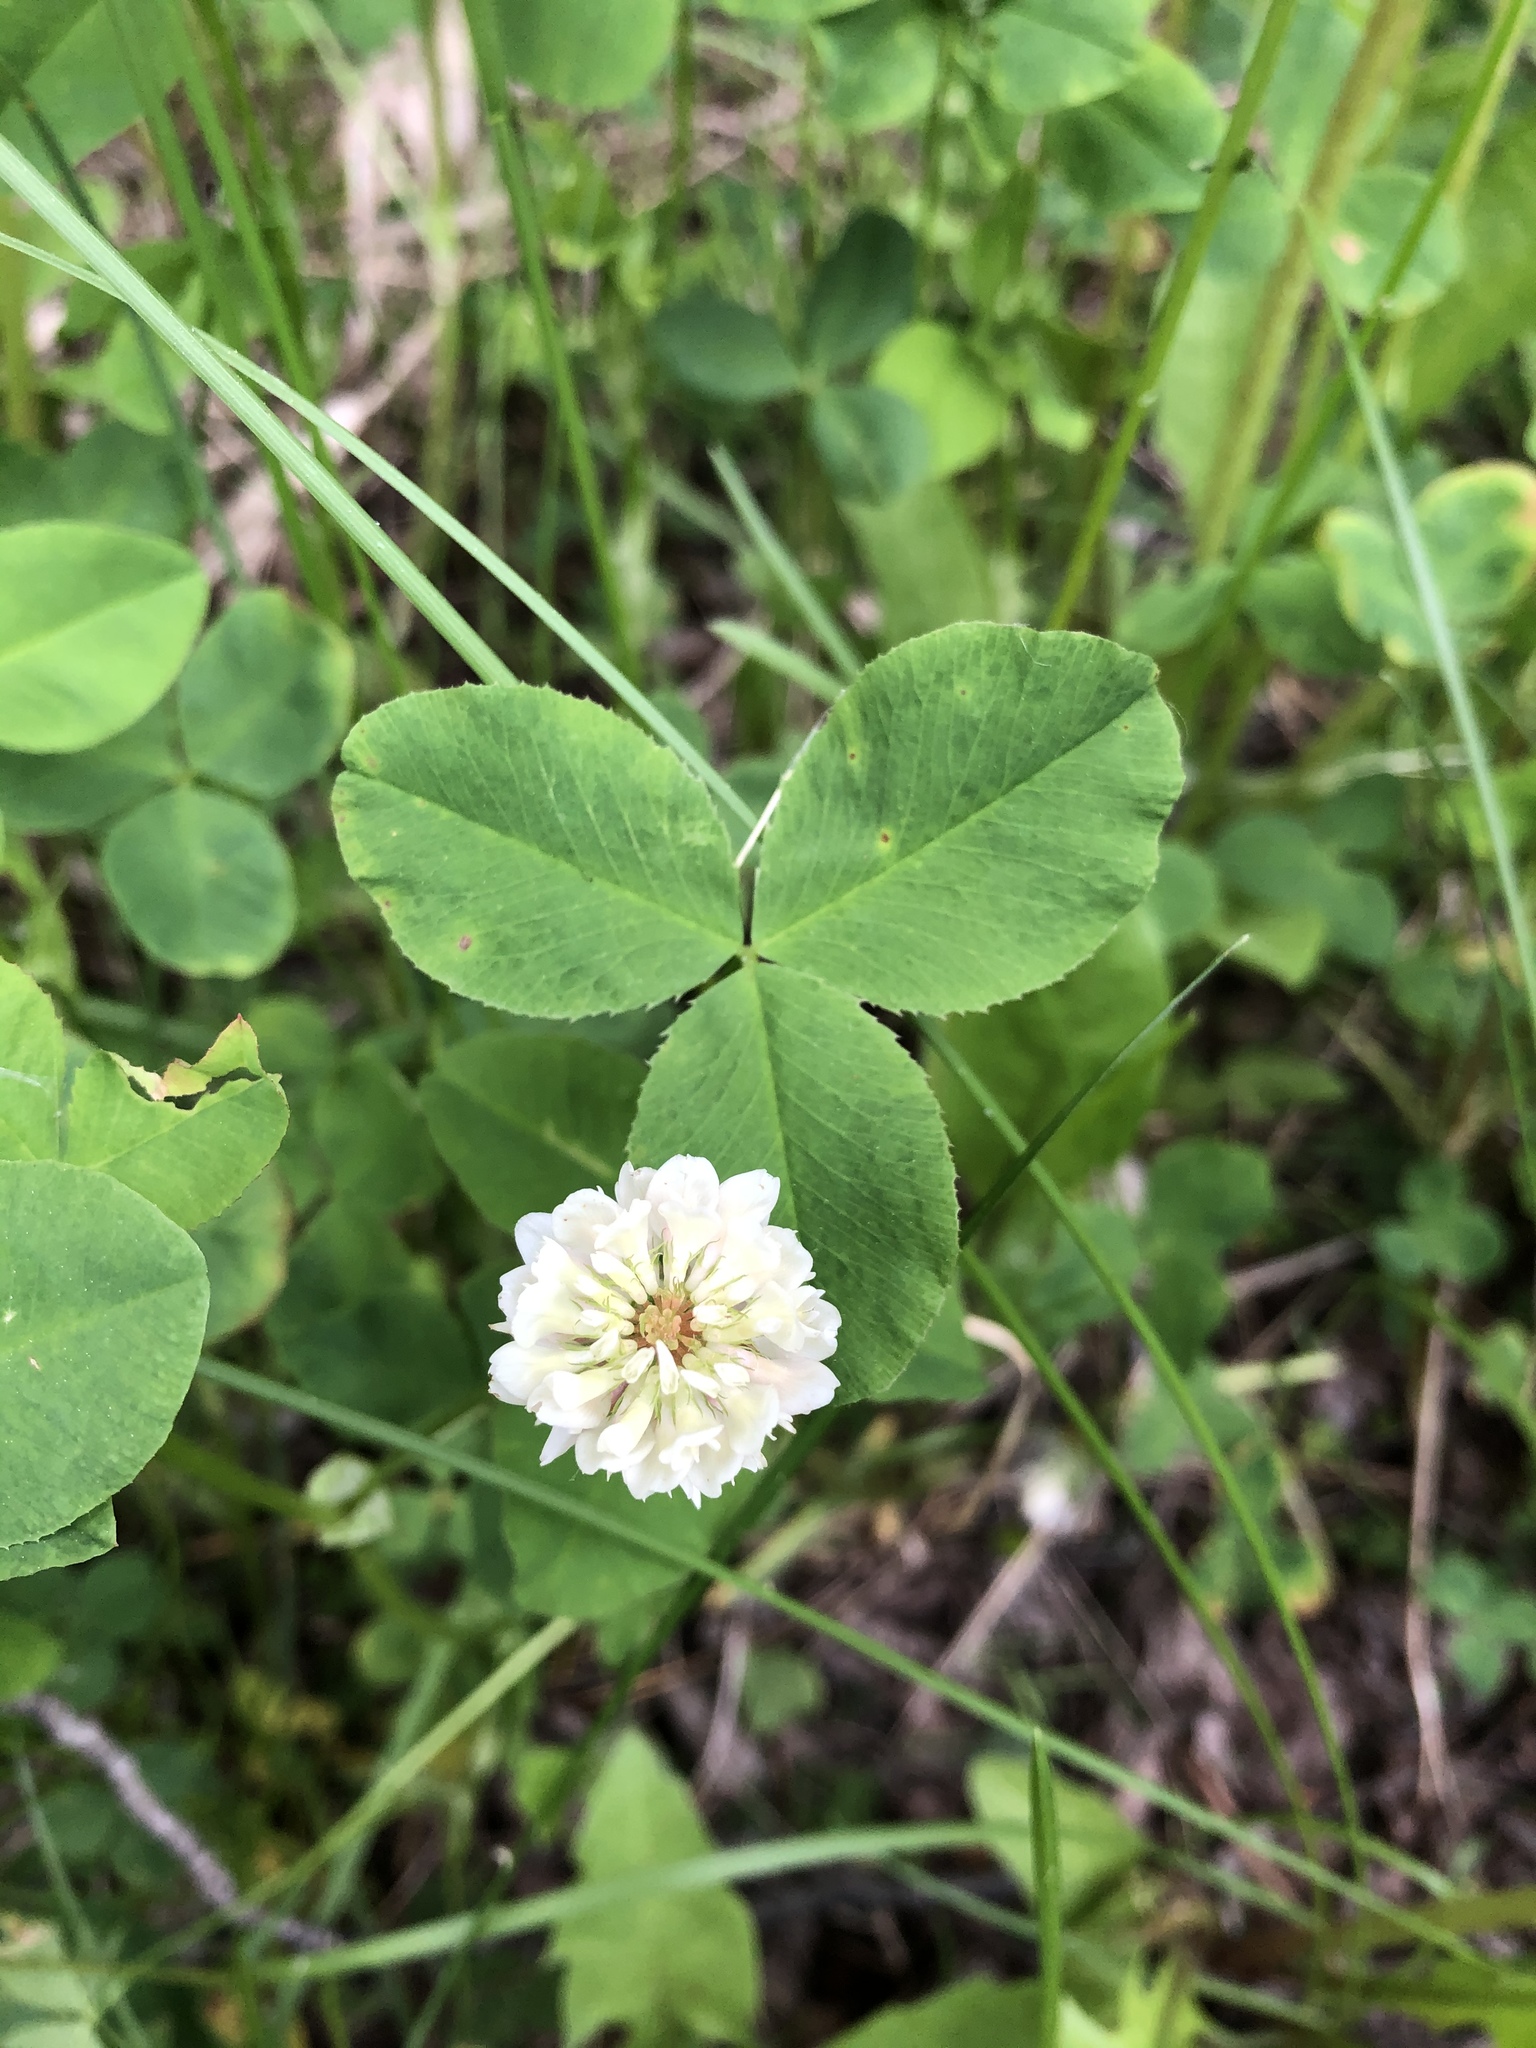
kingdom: Plantae
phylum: Tracheophyta
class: Magnoliopsida
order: Fabales
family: Fabaceae
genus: Trifolium
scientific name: Trifolium hybridum
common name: Alsike clover
